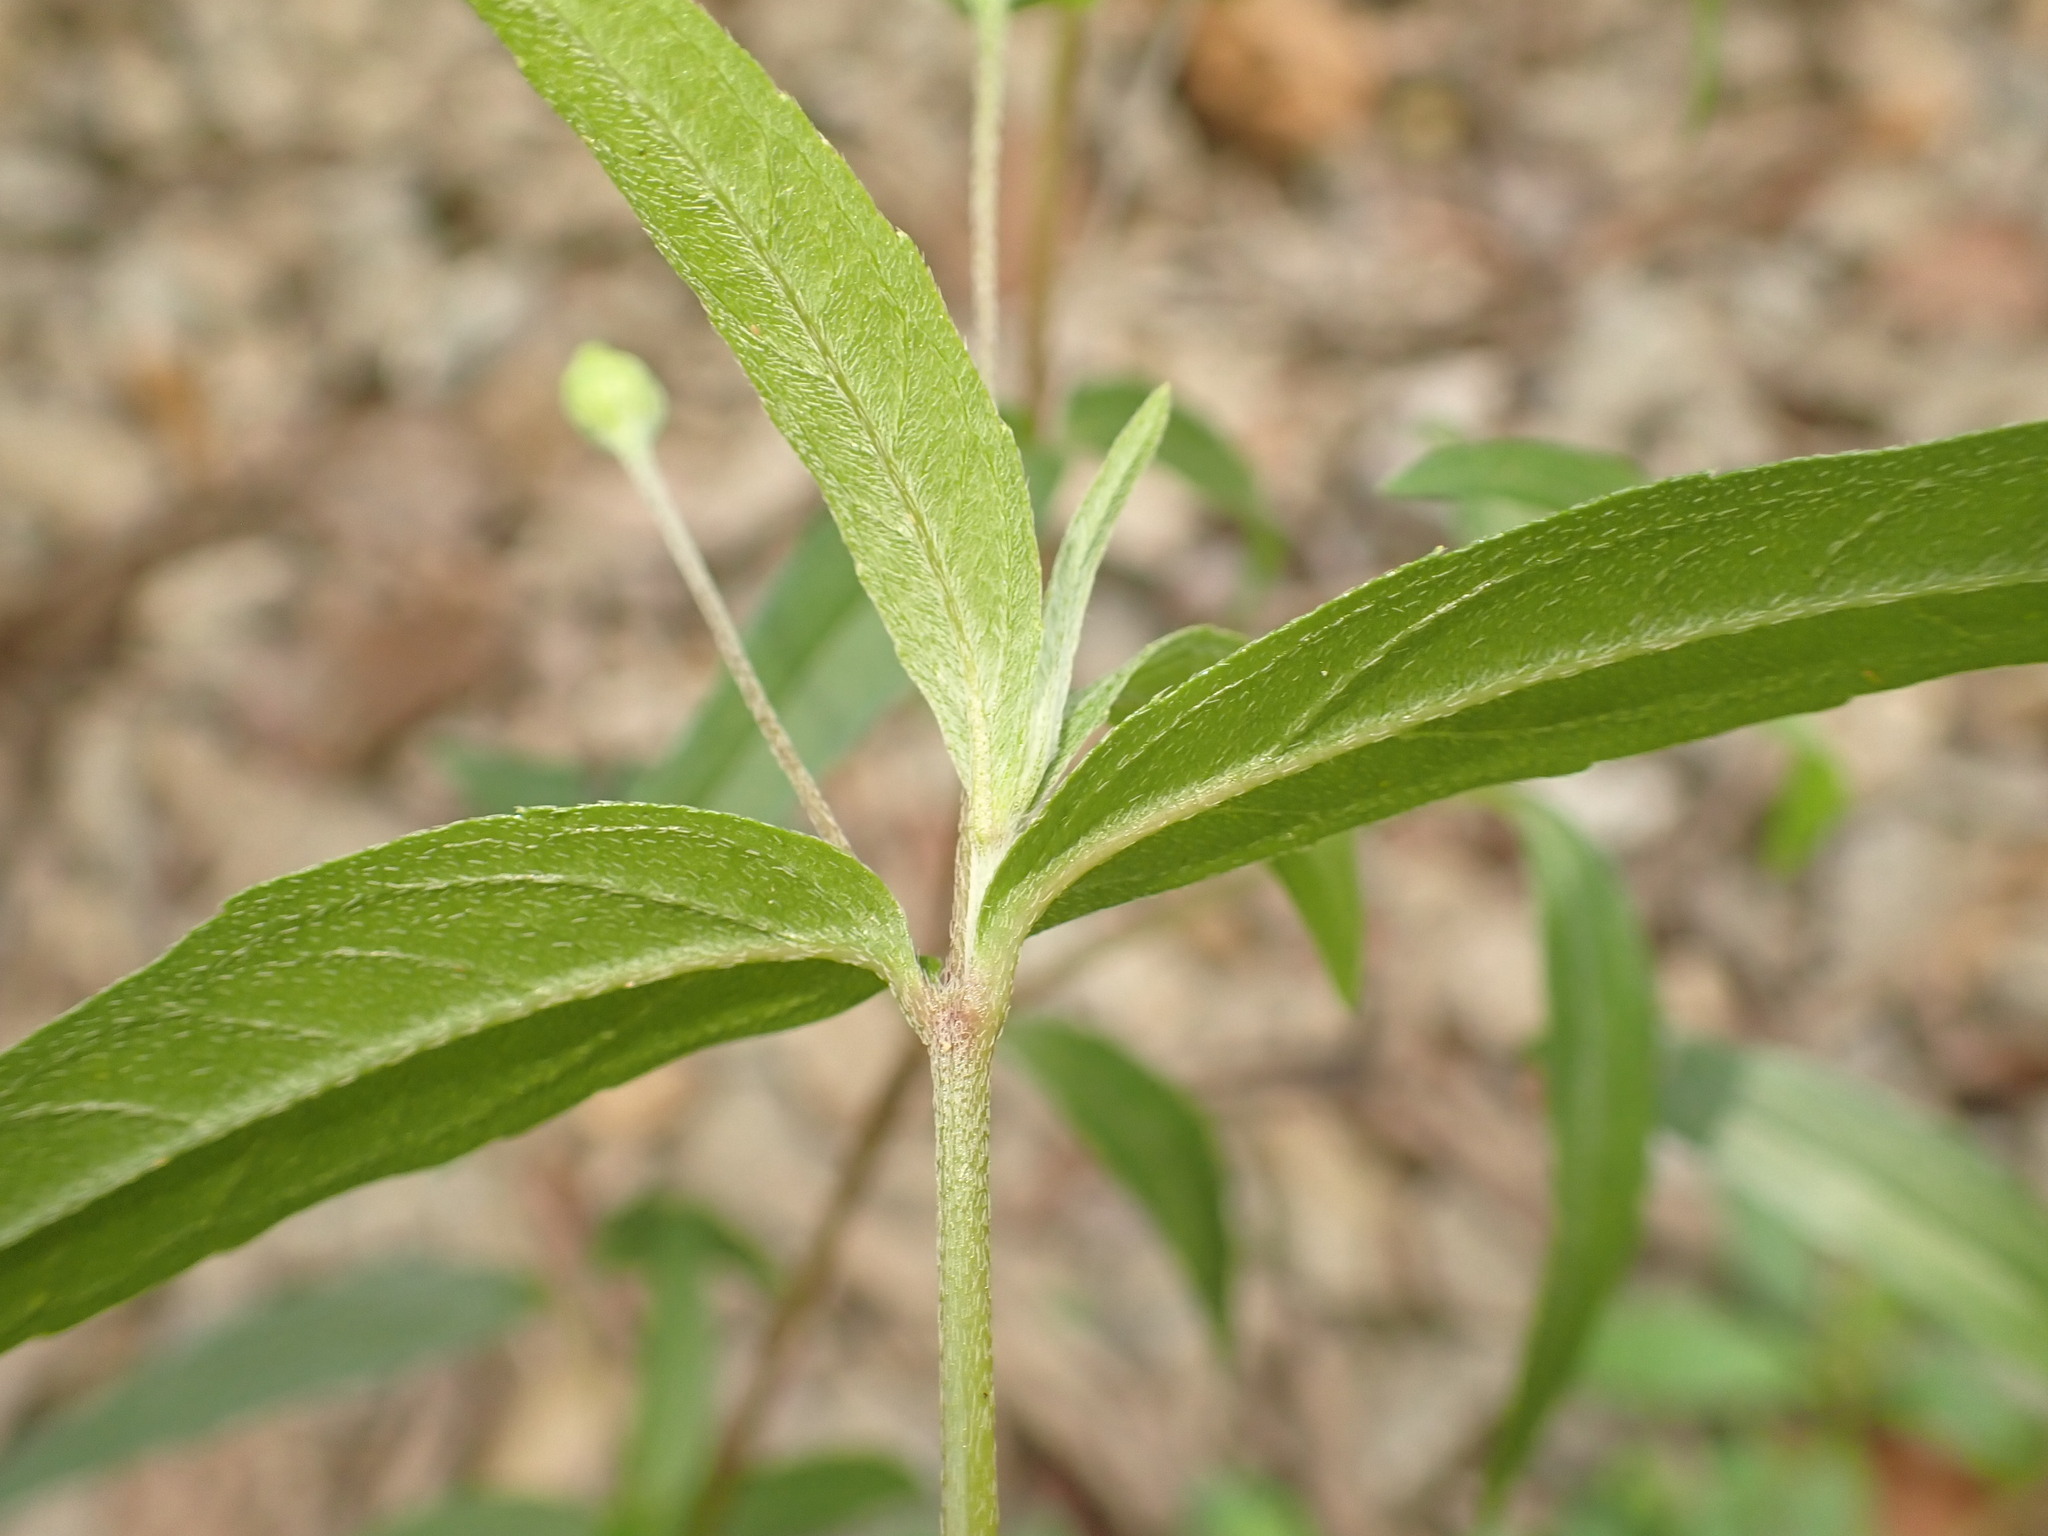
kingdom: Plantae
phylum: Tracheophyta
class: Magnoliopsida
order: Asterales
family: Asteraceae
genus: Eclipta
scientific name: Eclipta prostrata
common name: False daisy
